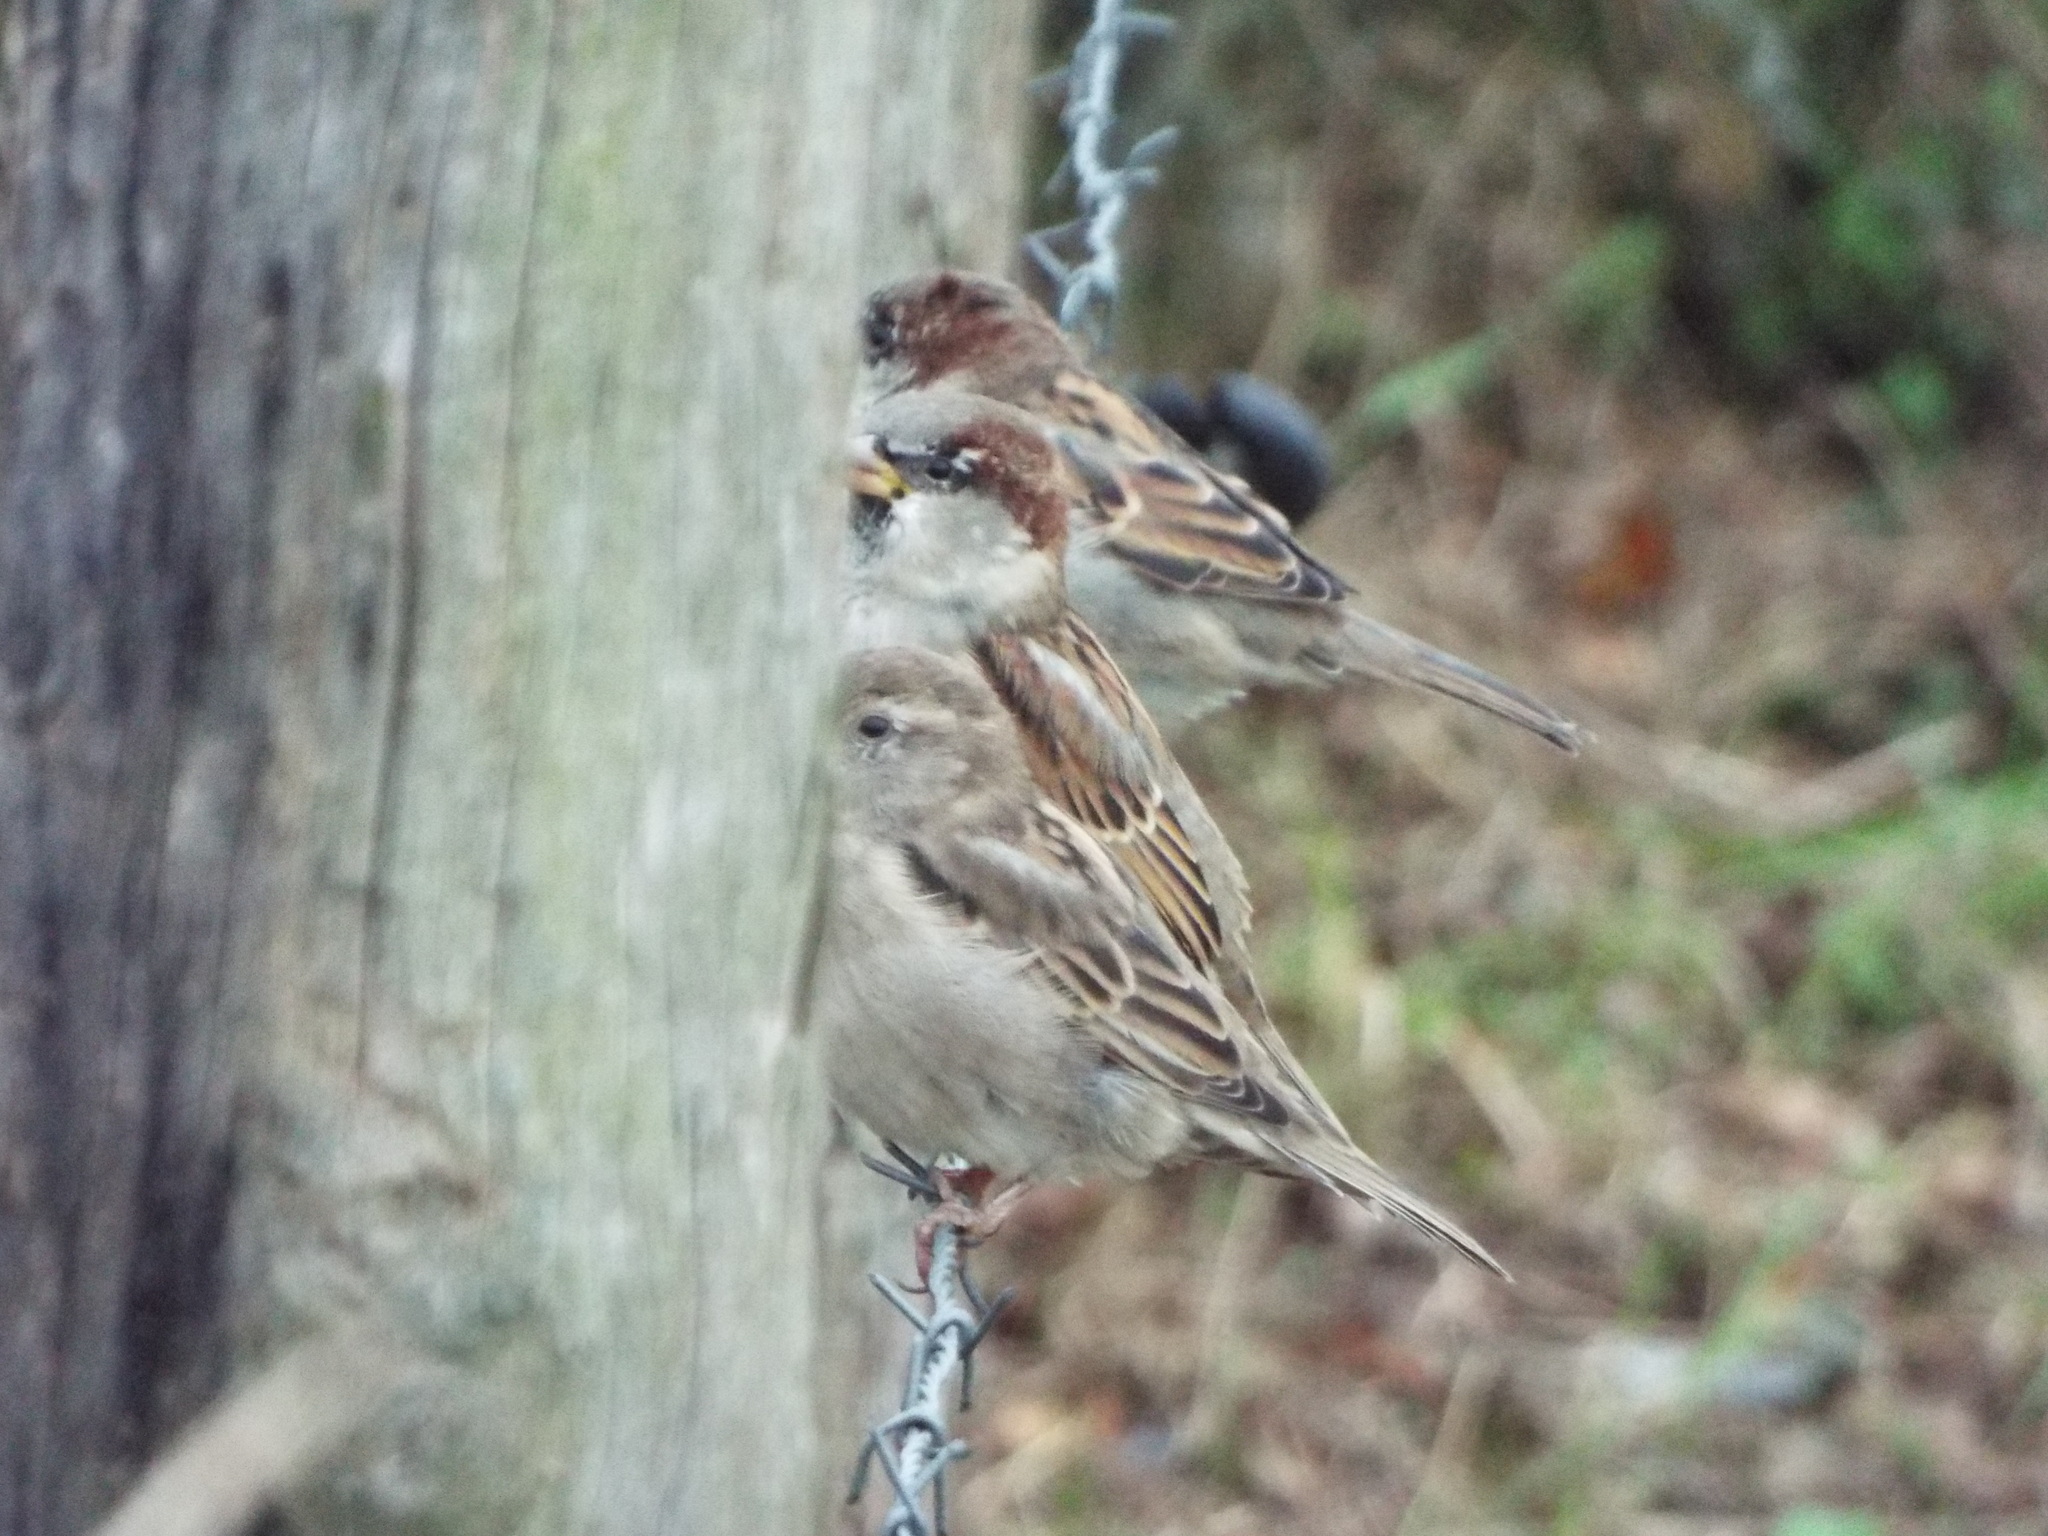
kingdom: Animalia
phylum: Chordata
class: Aves
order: Passeriformes
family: Passeridae
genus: Passer
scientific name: Passer domesticus
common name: House sparrow
